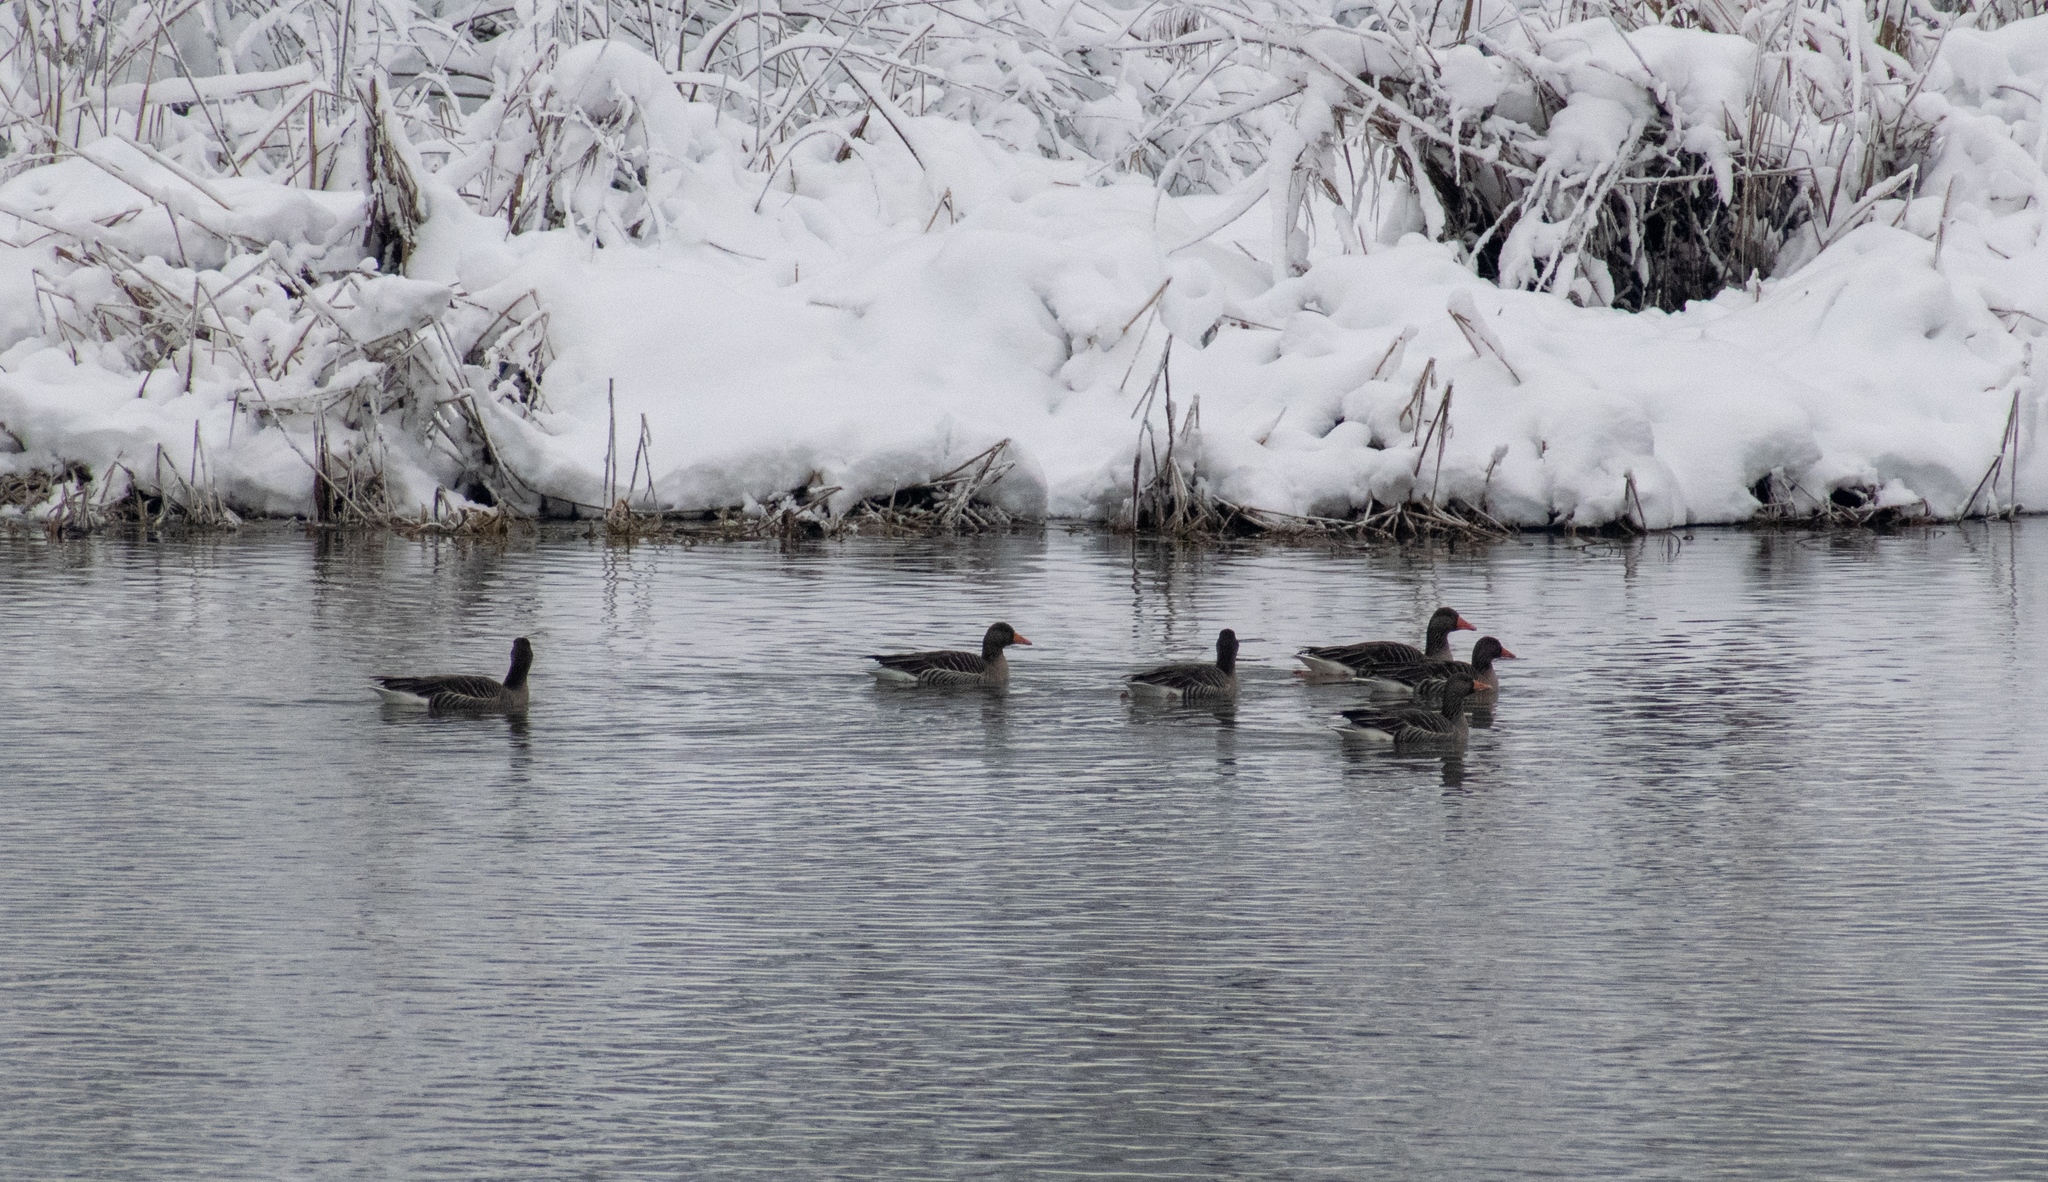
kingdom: Animalia
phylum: Chordata
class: Aves
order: Anseriformes
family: Anatidae
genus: Anser
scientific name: Anser anser
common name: Greylag goose
